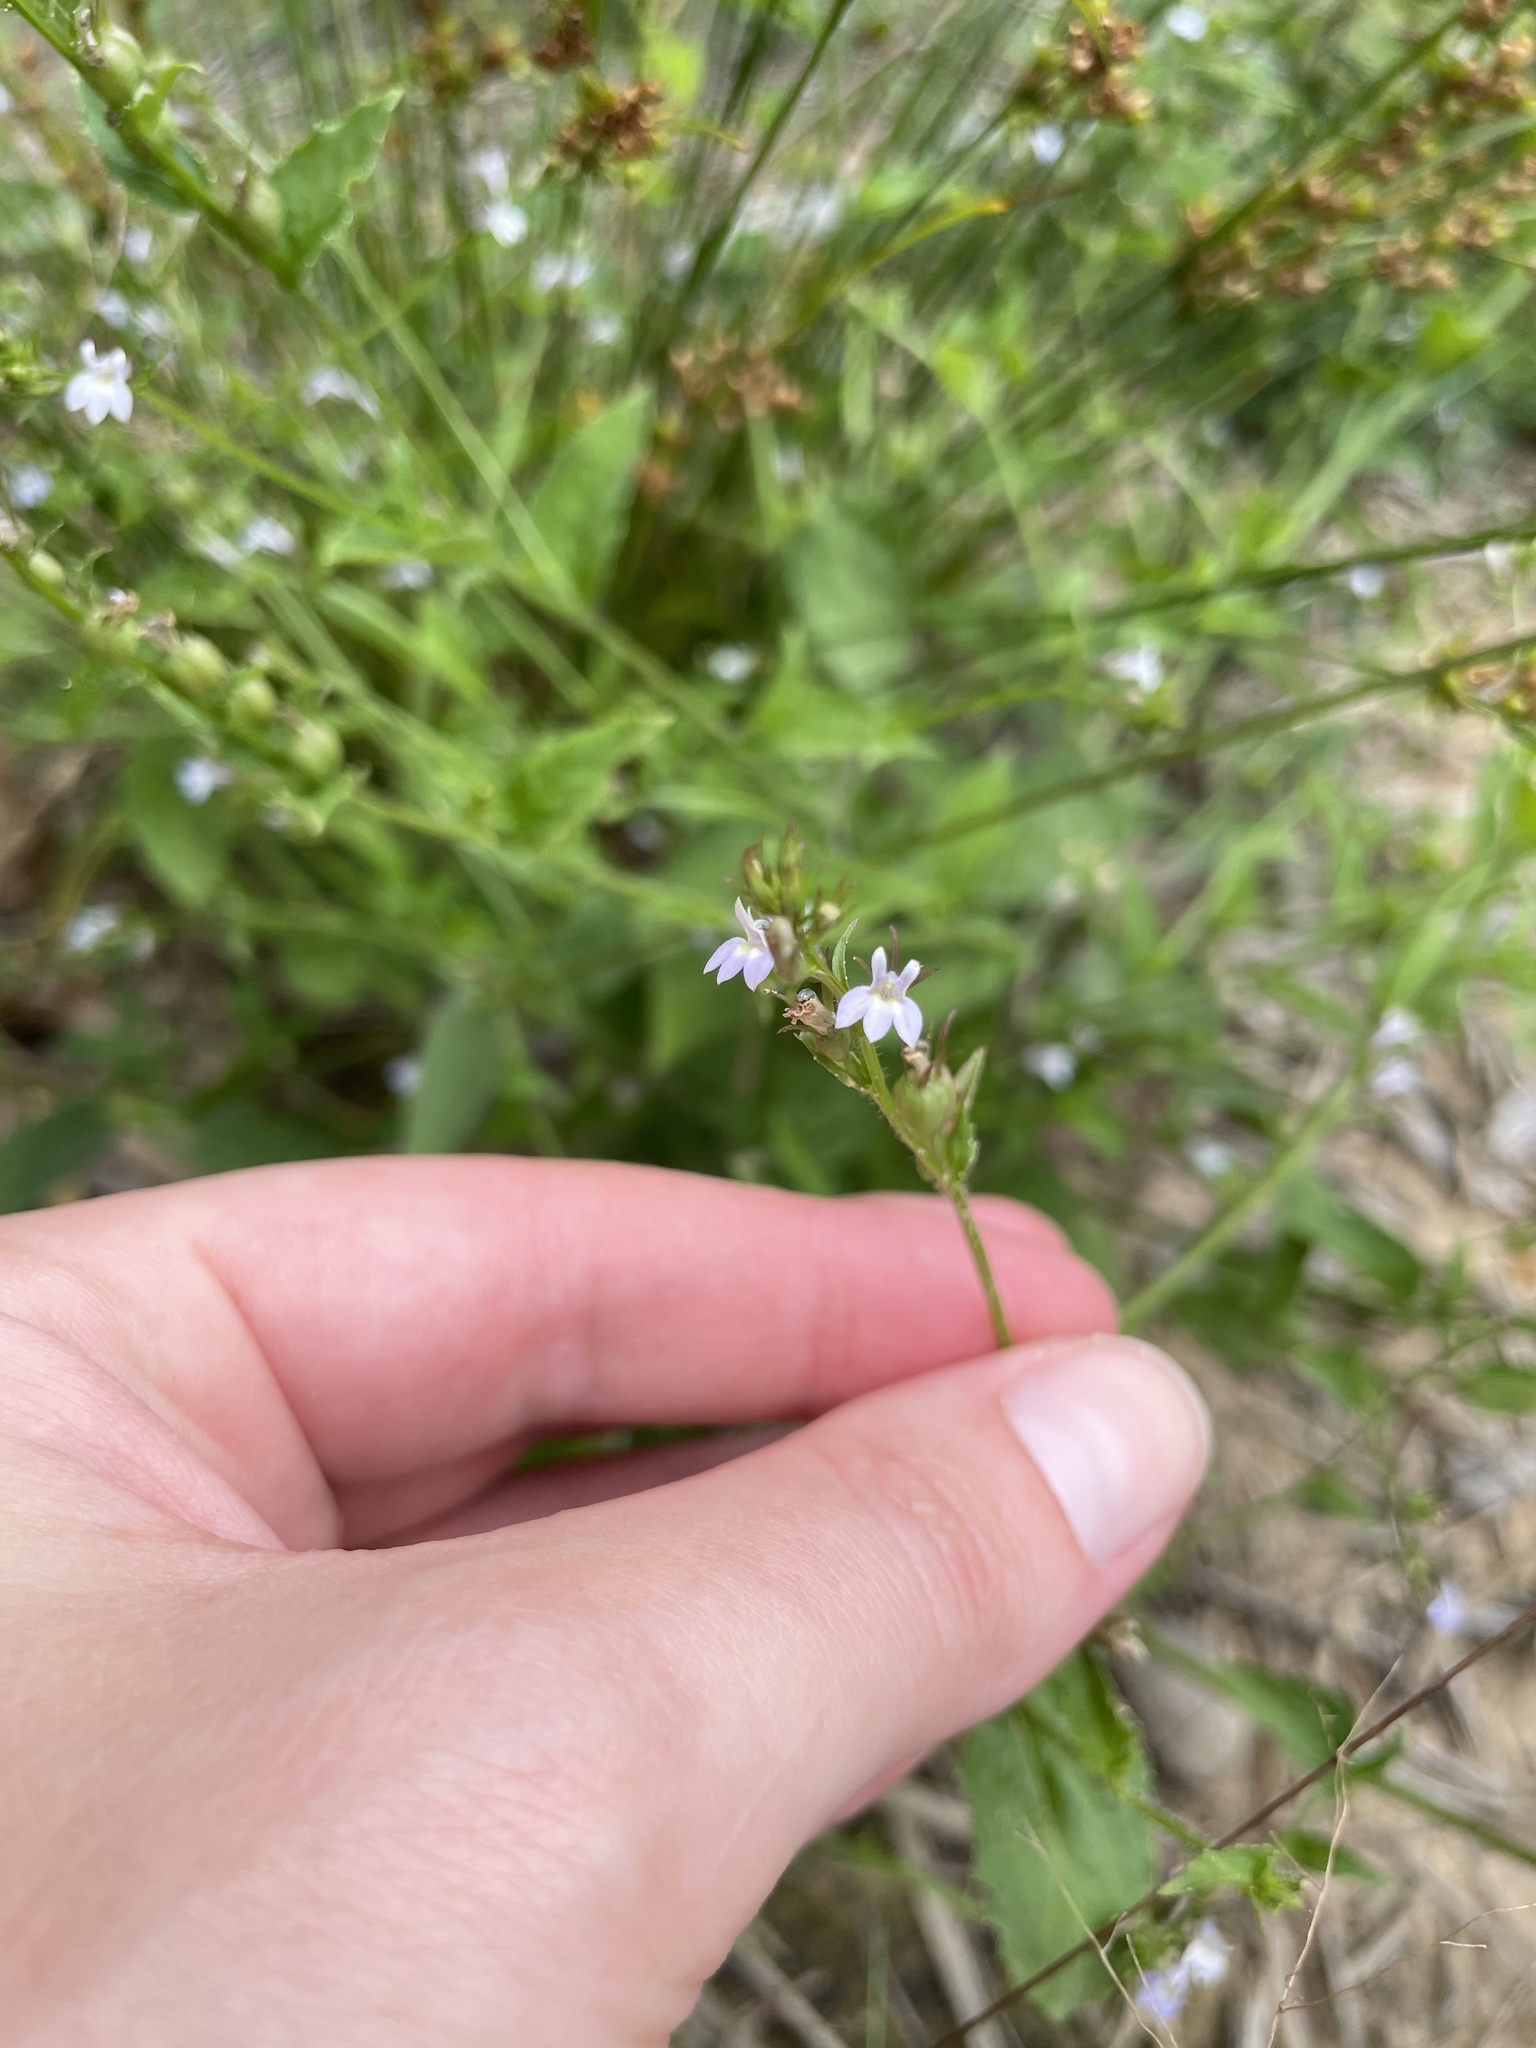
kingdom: Plantae
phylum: Tracheophyta
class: Magnoliopsida
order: Asterales
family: Campanulaceae
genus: Lobelia
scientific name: Lobelia inflata
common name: Indian tobacco
